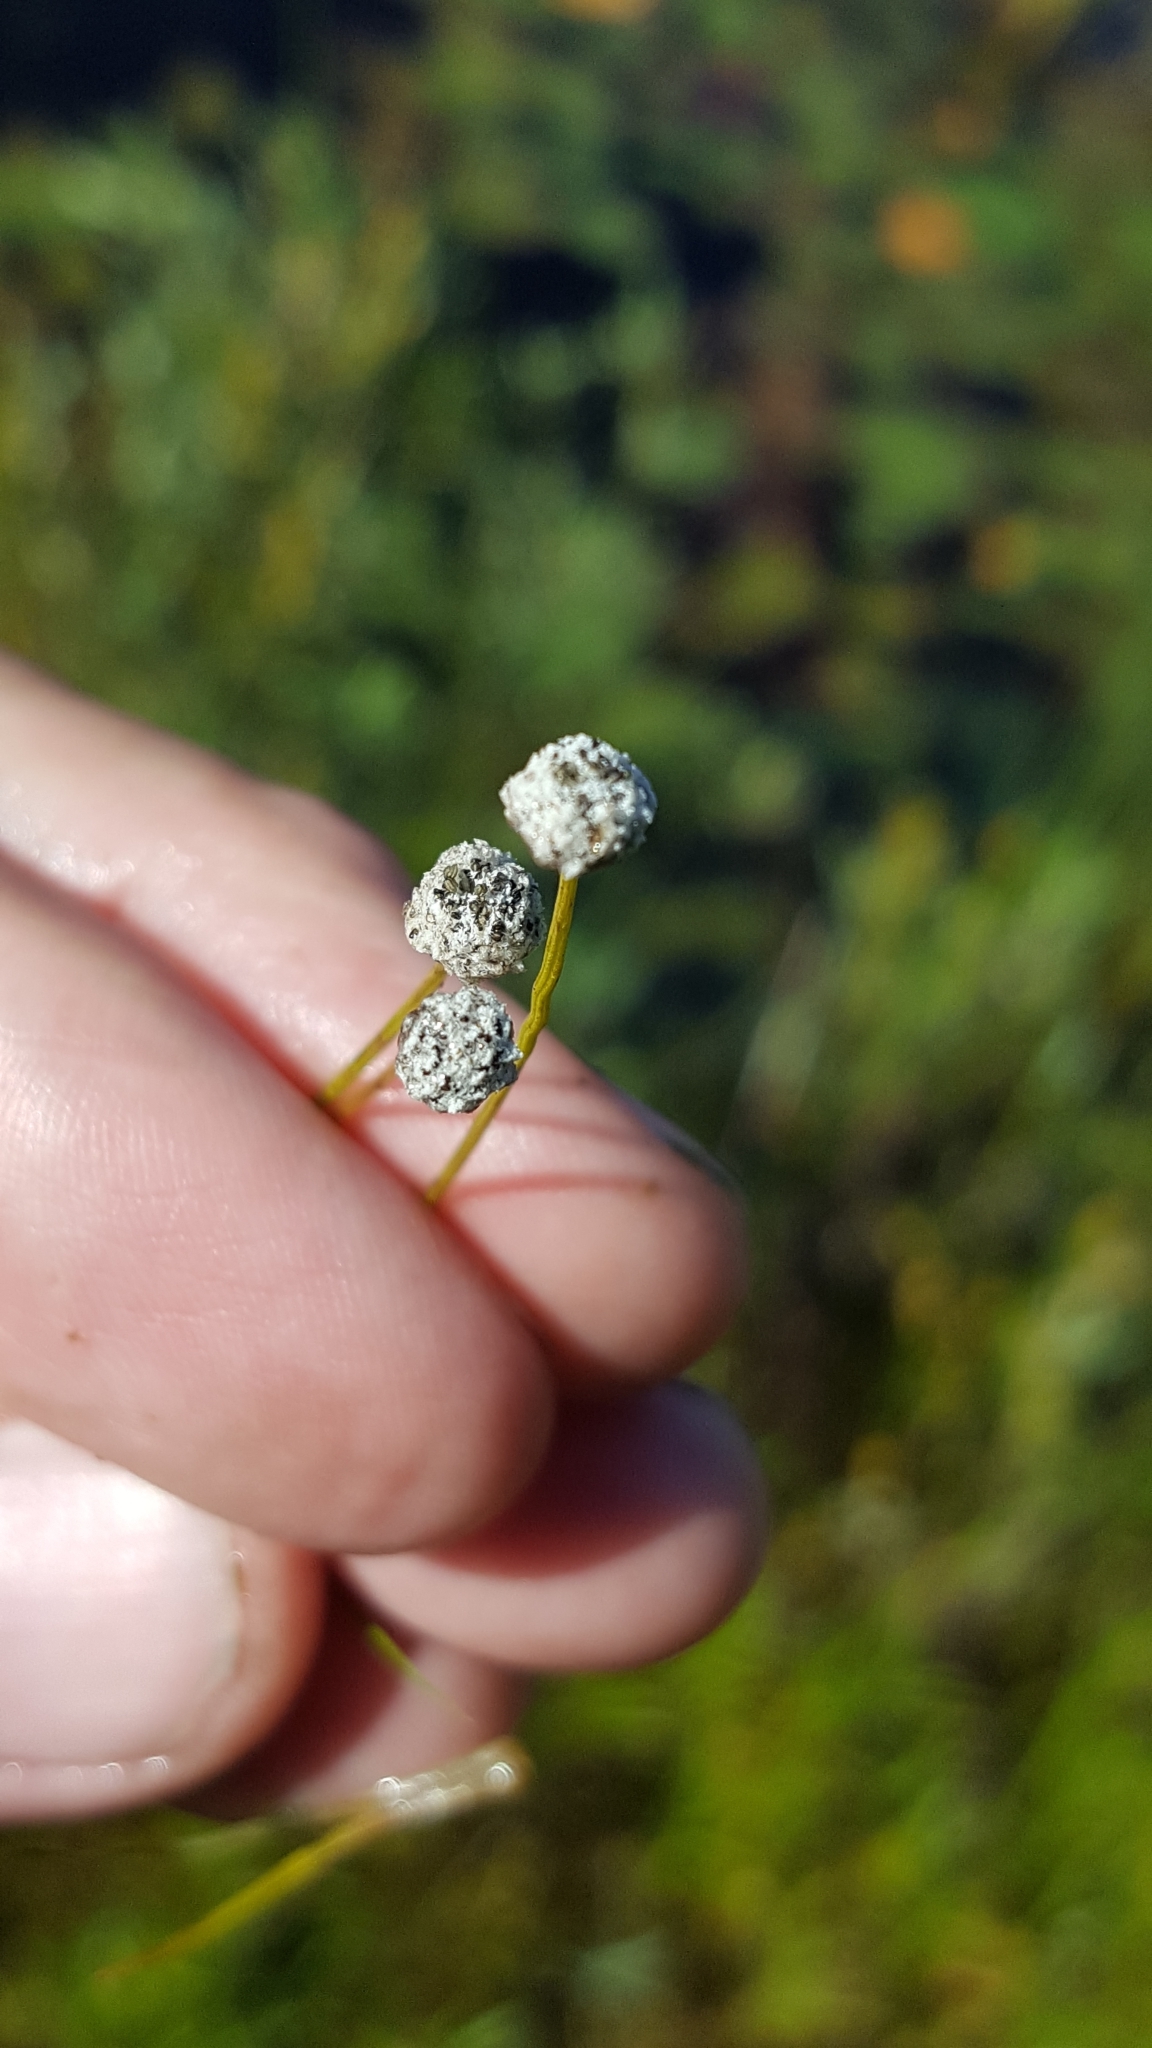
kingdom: Plantae
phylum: Tracheophyta
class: Liliopsida
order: Poales
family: Eriocaulaceae
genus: Eriocaulon
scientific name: Eriocaulon aquaticum
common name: Pipewort
